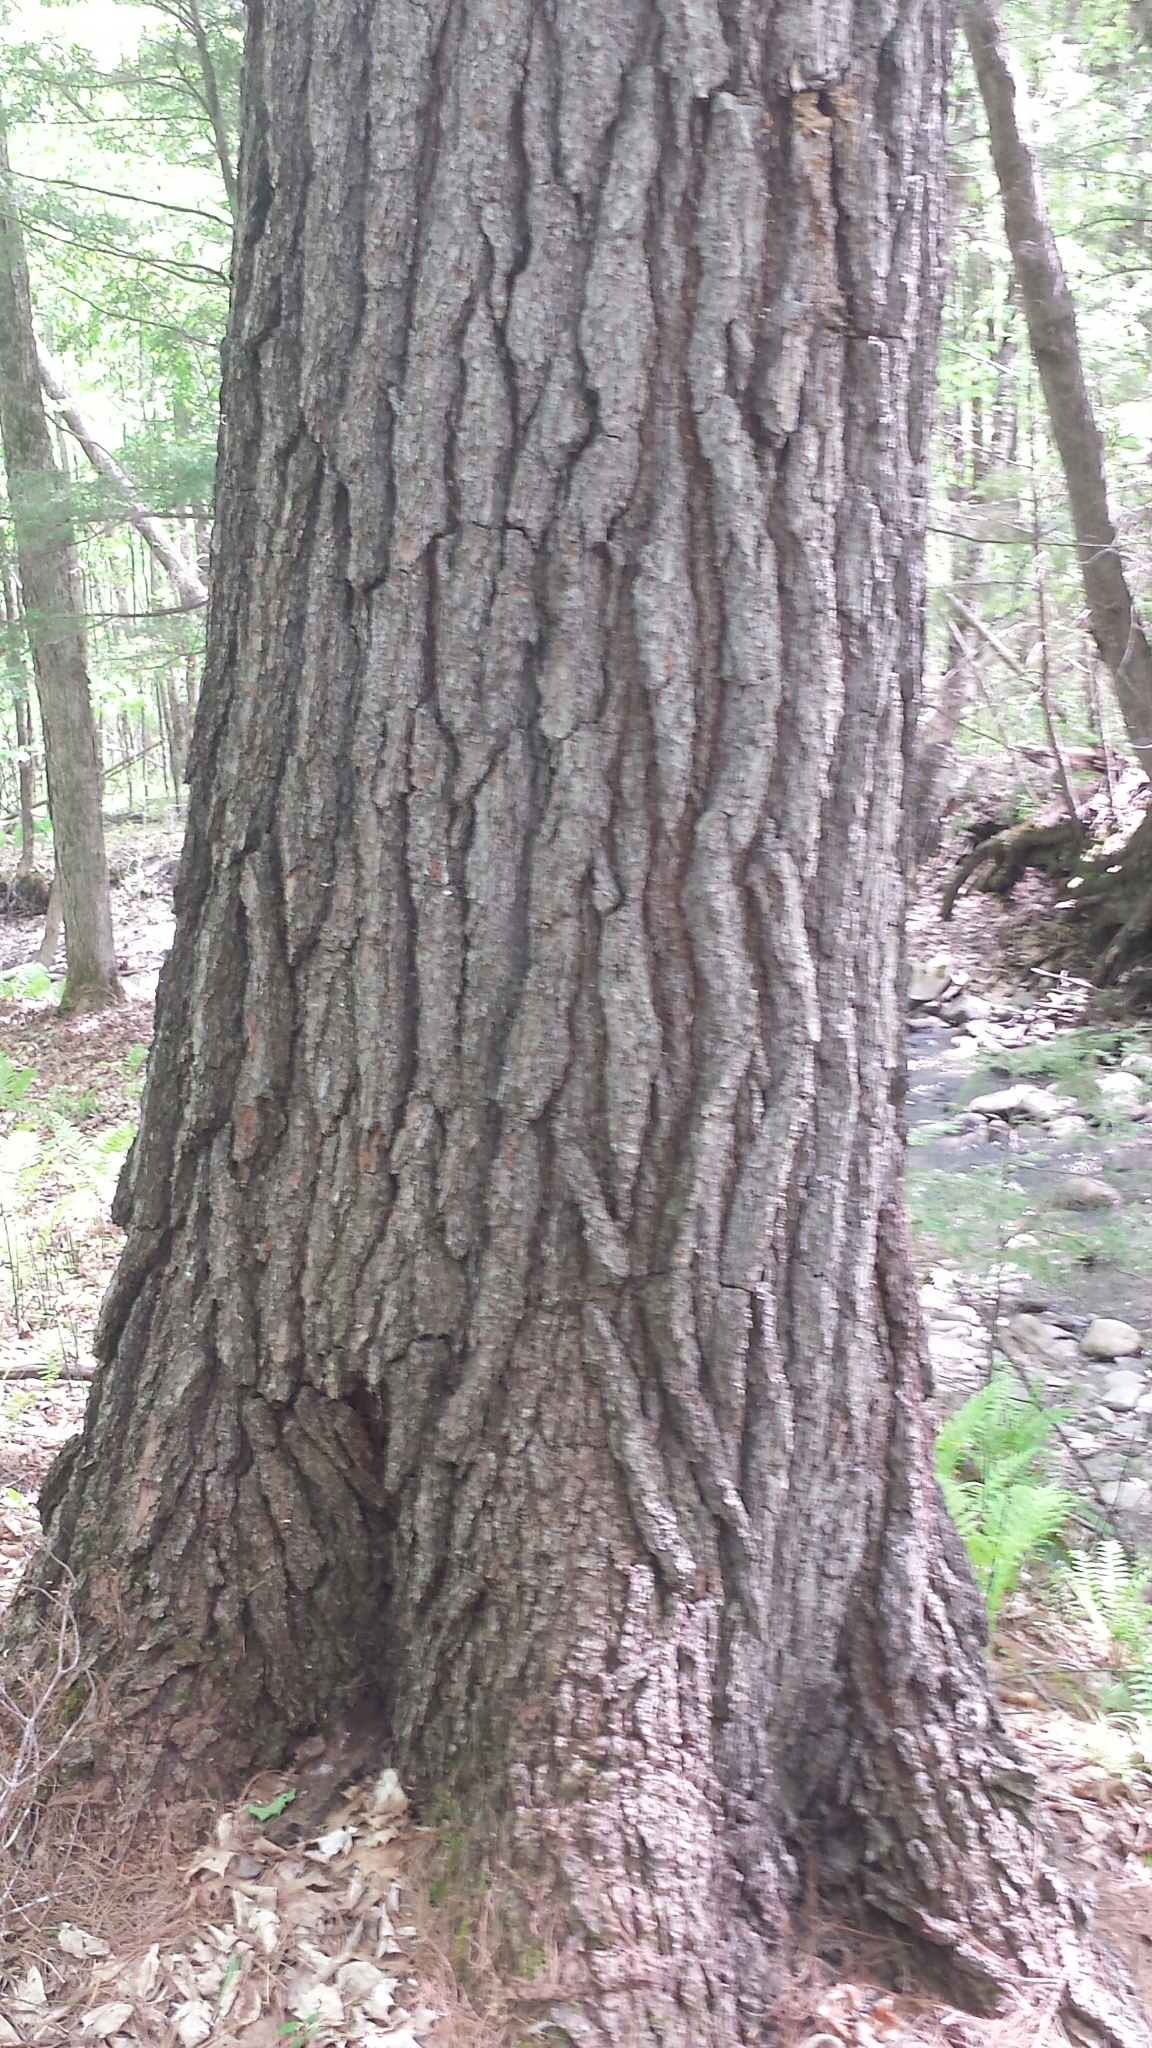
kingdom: Plantae
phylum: Tracheophyta
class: Pinopsida
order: Pinales
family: Pinaceae
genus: Pinus
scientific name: Pinus strobus
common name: Weymouth pine
